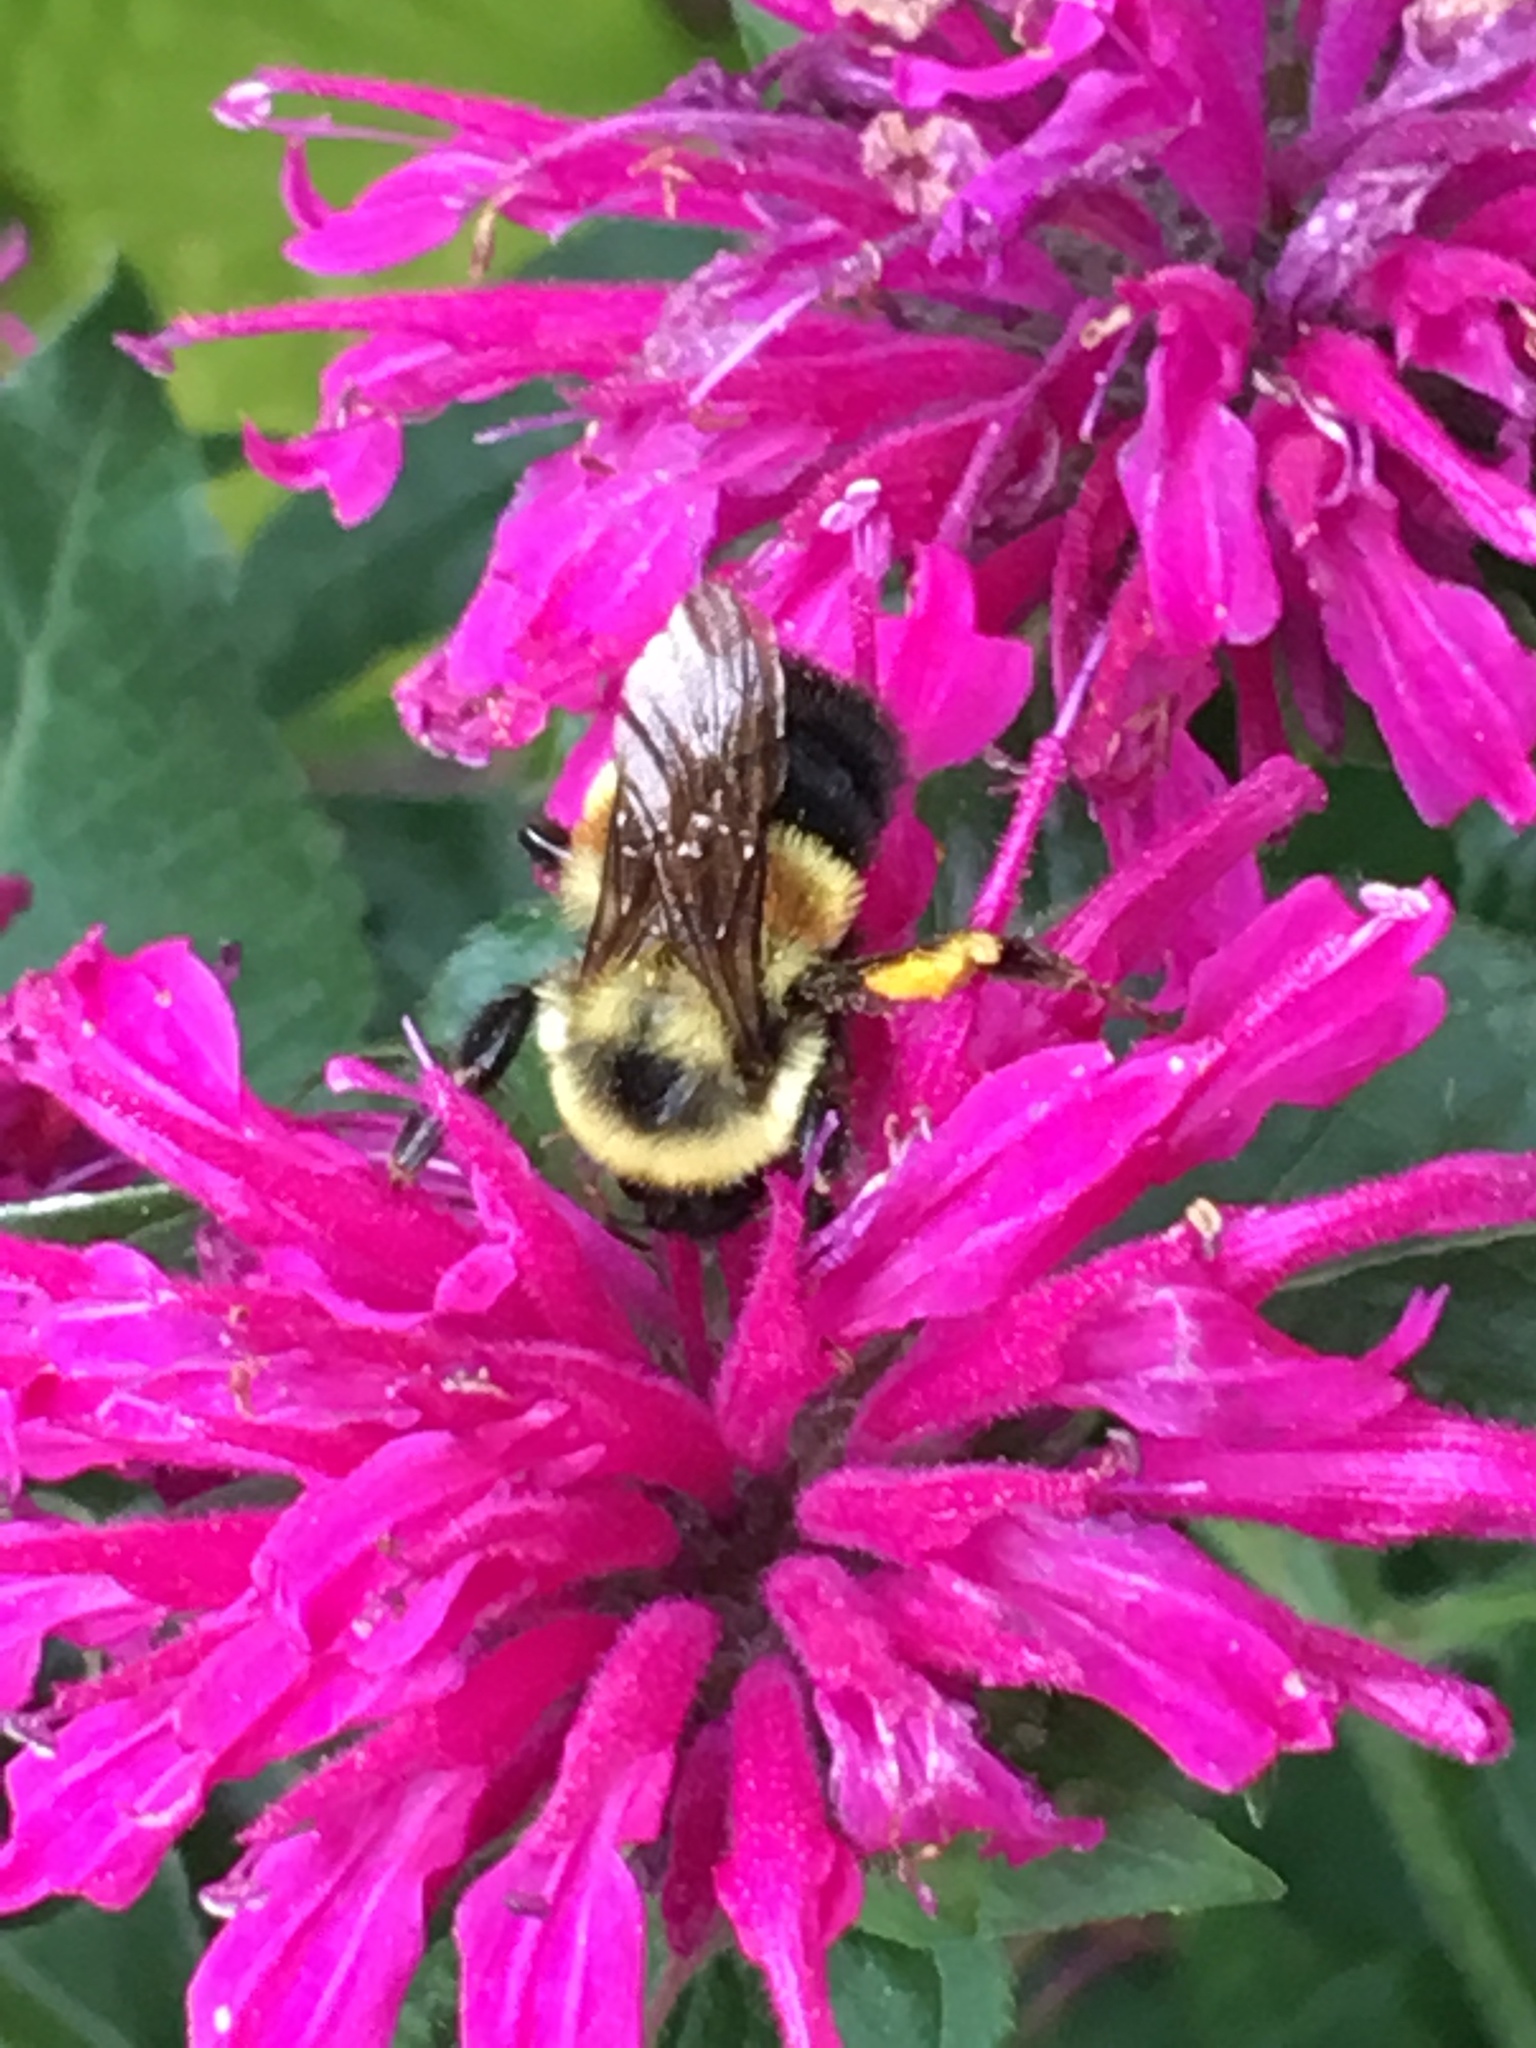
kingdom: Animalia
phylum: Arthropoda
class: Insecta
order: Hymenoptera
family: Apidae
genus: Bombus
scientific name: Bombus affinis
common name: Rusty patched bumble bee
